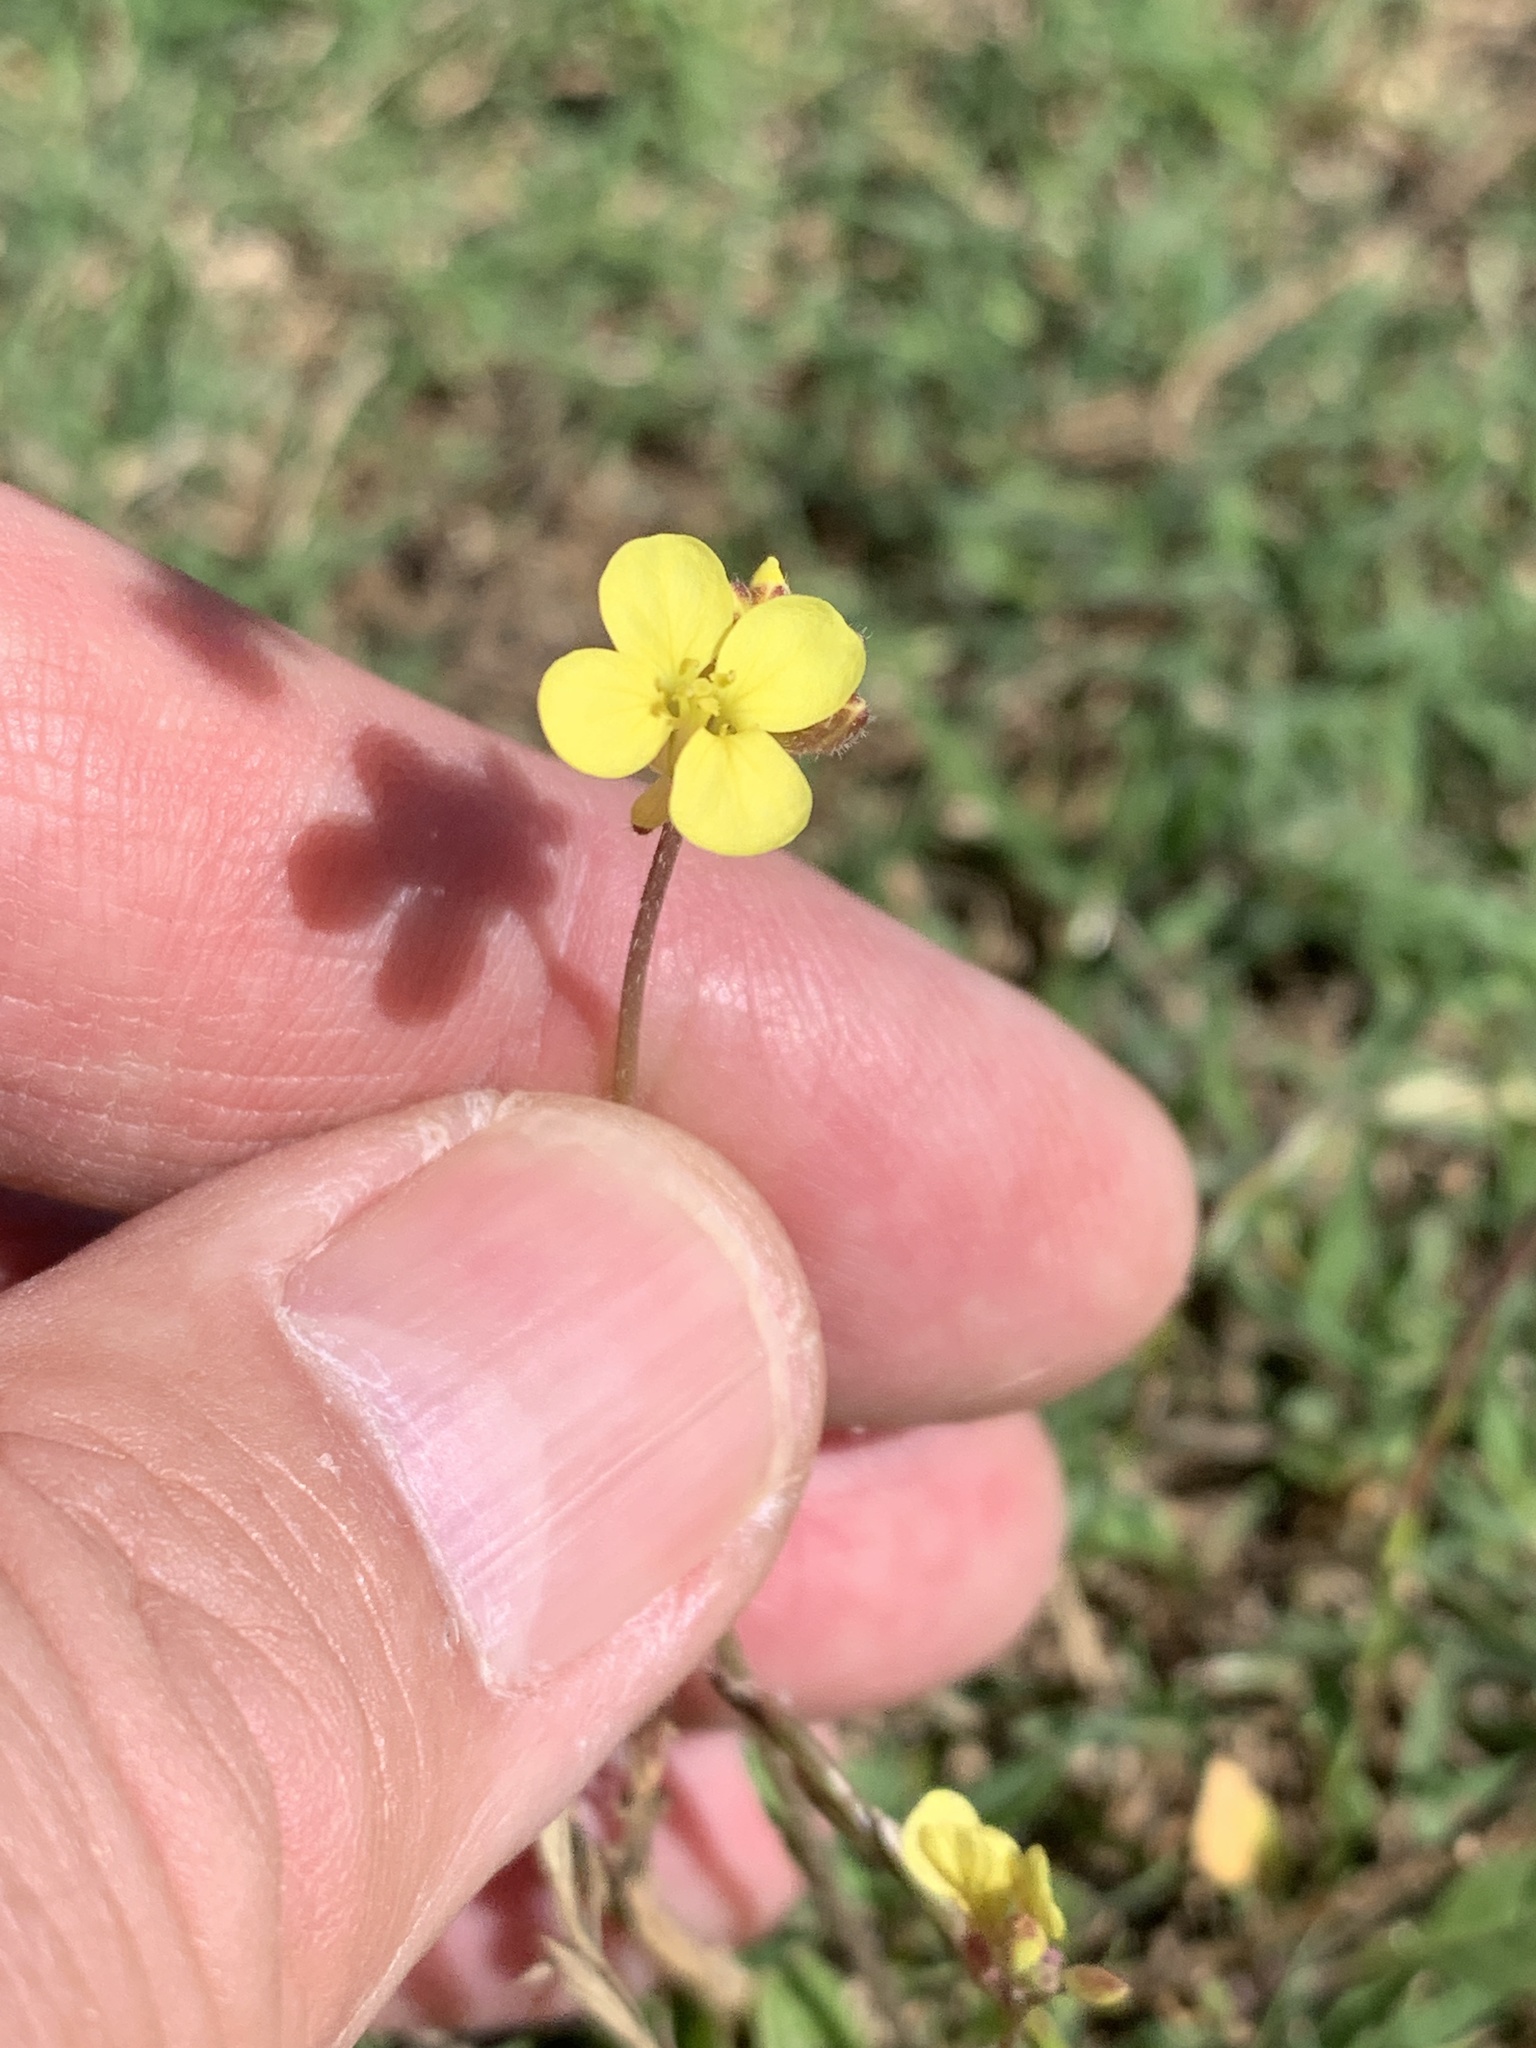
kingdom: Plantae
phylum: Tracheophyta
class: Magnoliopsida
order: Brassicales
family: Brassicaceae
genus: Diplotaxis
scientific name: Diplotaxis muralis
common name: Annual wall-rocket
